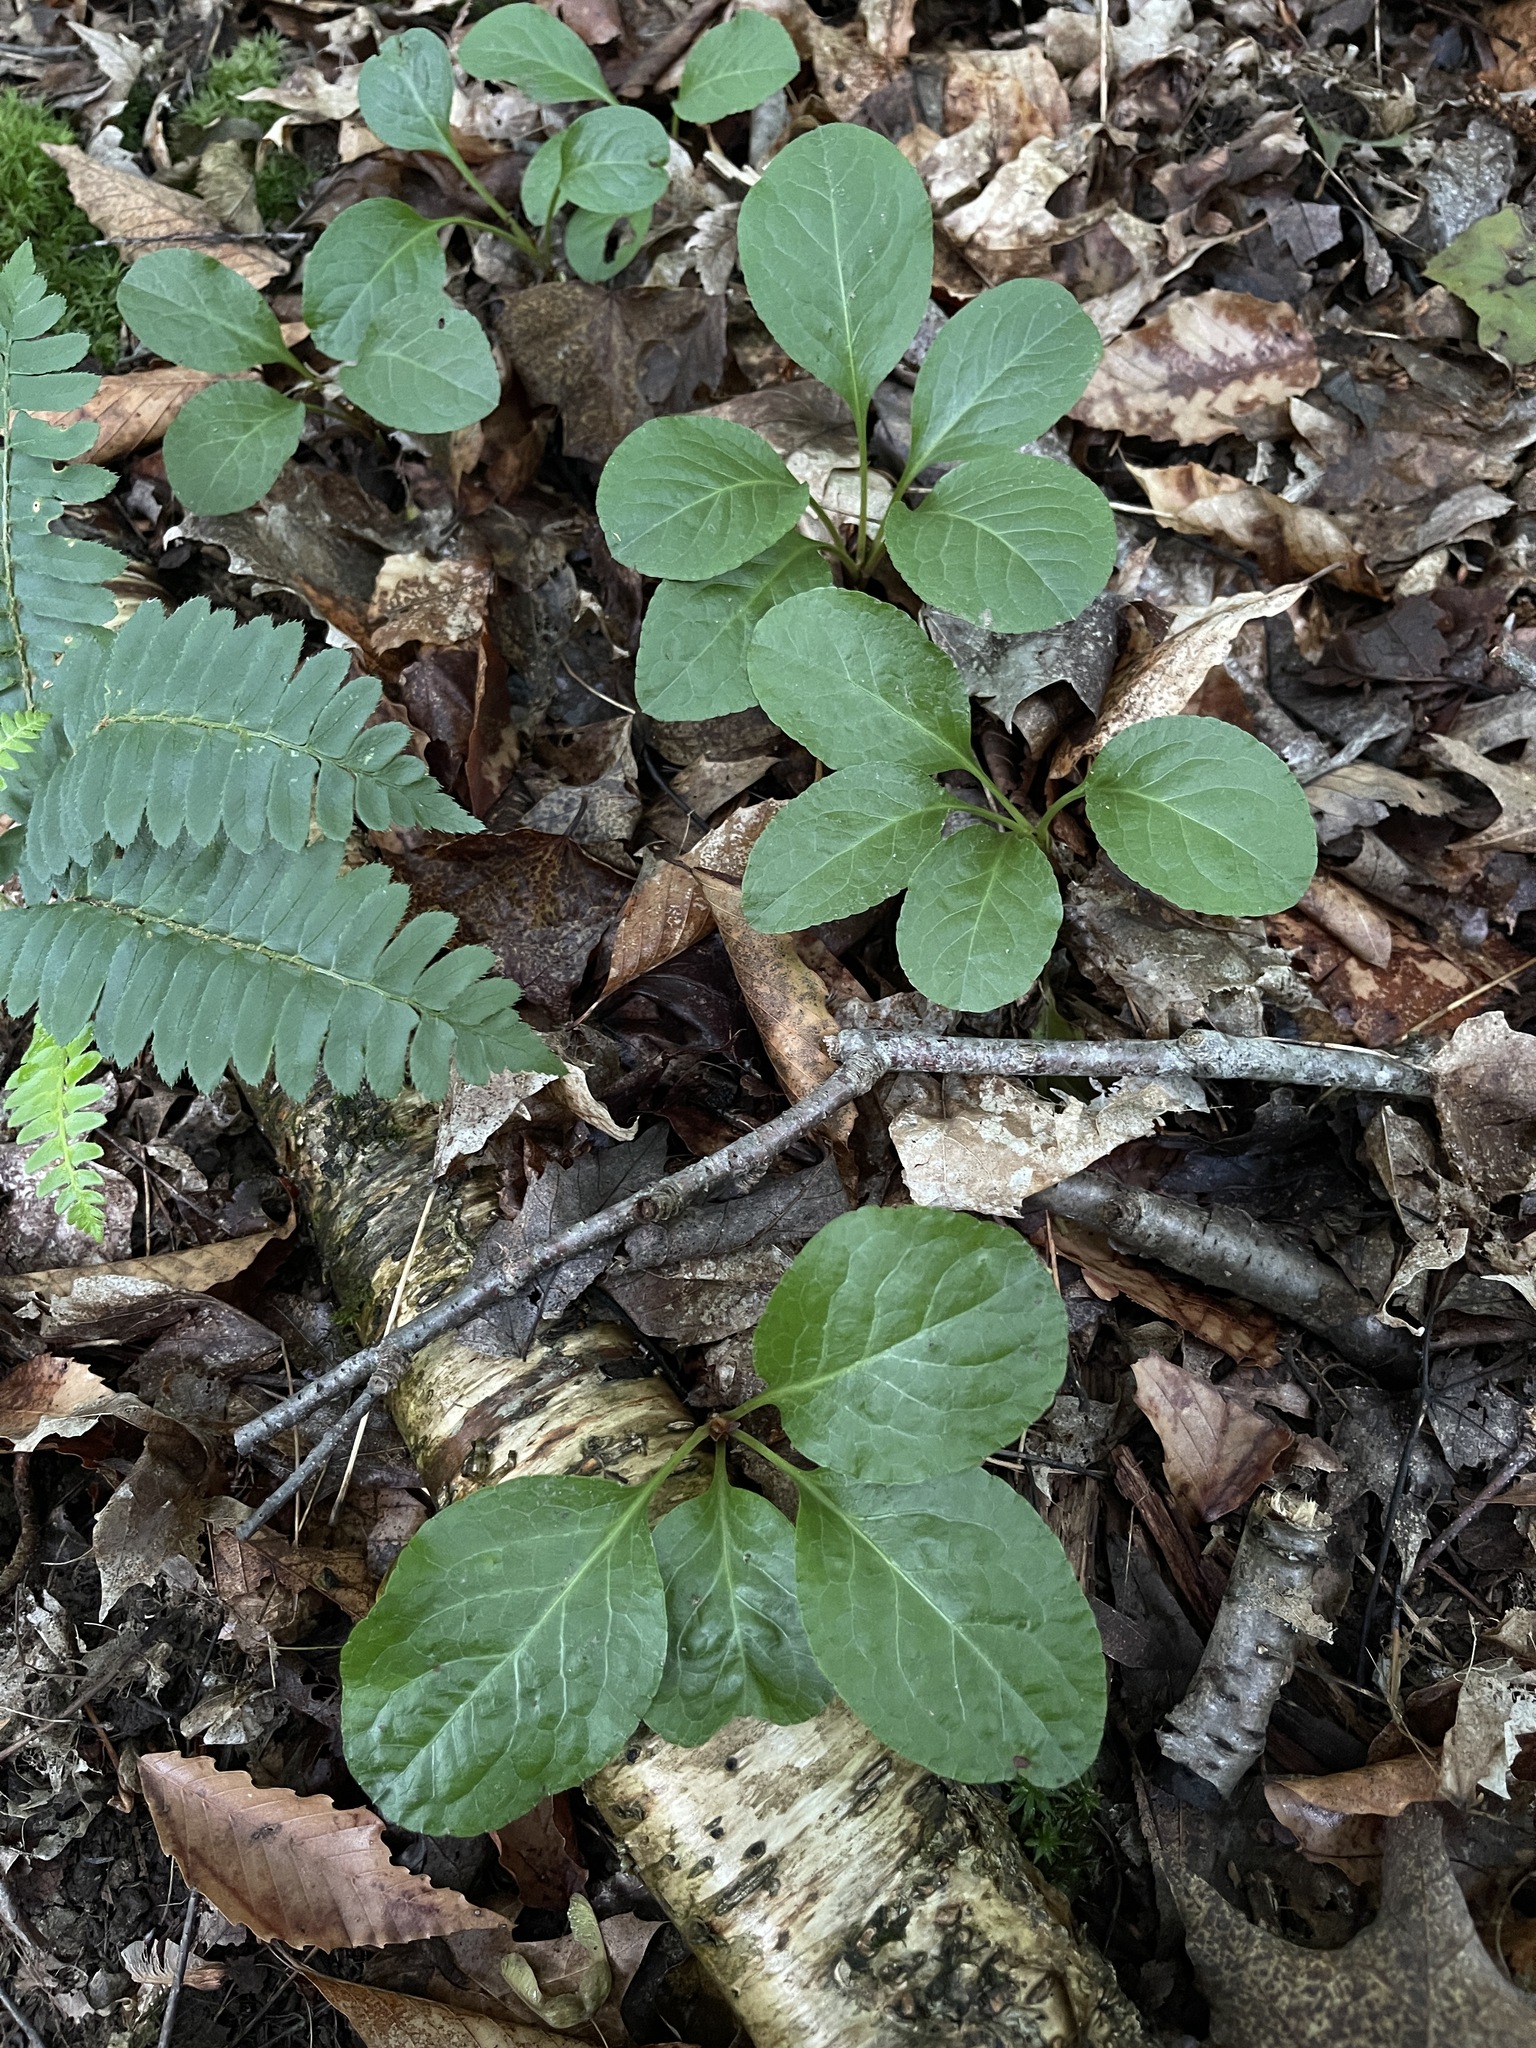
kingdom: Plantae
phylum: Tracheophyta
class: Magnoliopsida
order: Ericales
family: Ericaceae
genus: Pyrola
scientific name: Pyrola elliptica
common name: Shinleaf
